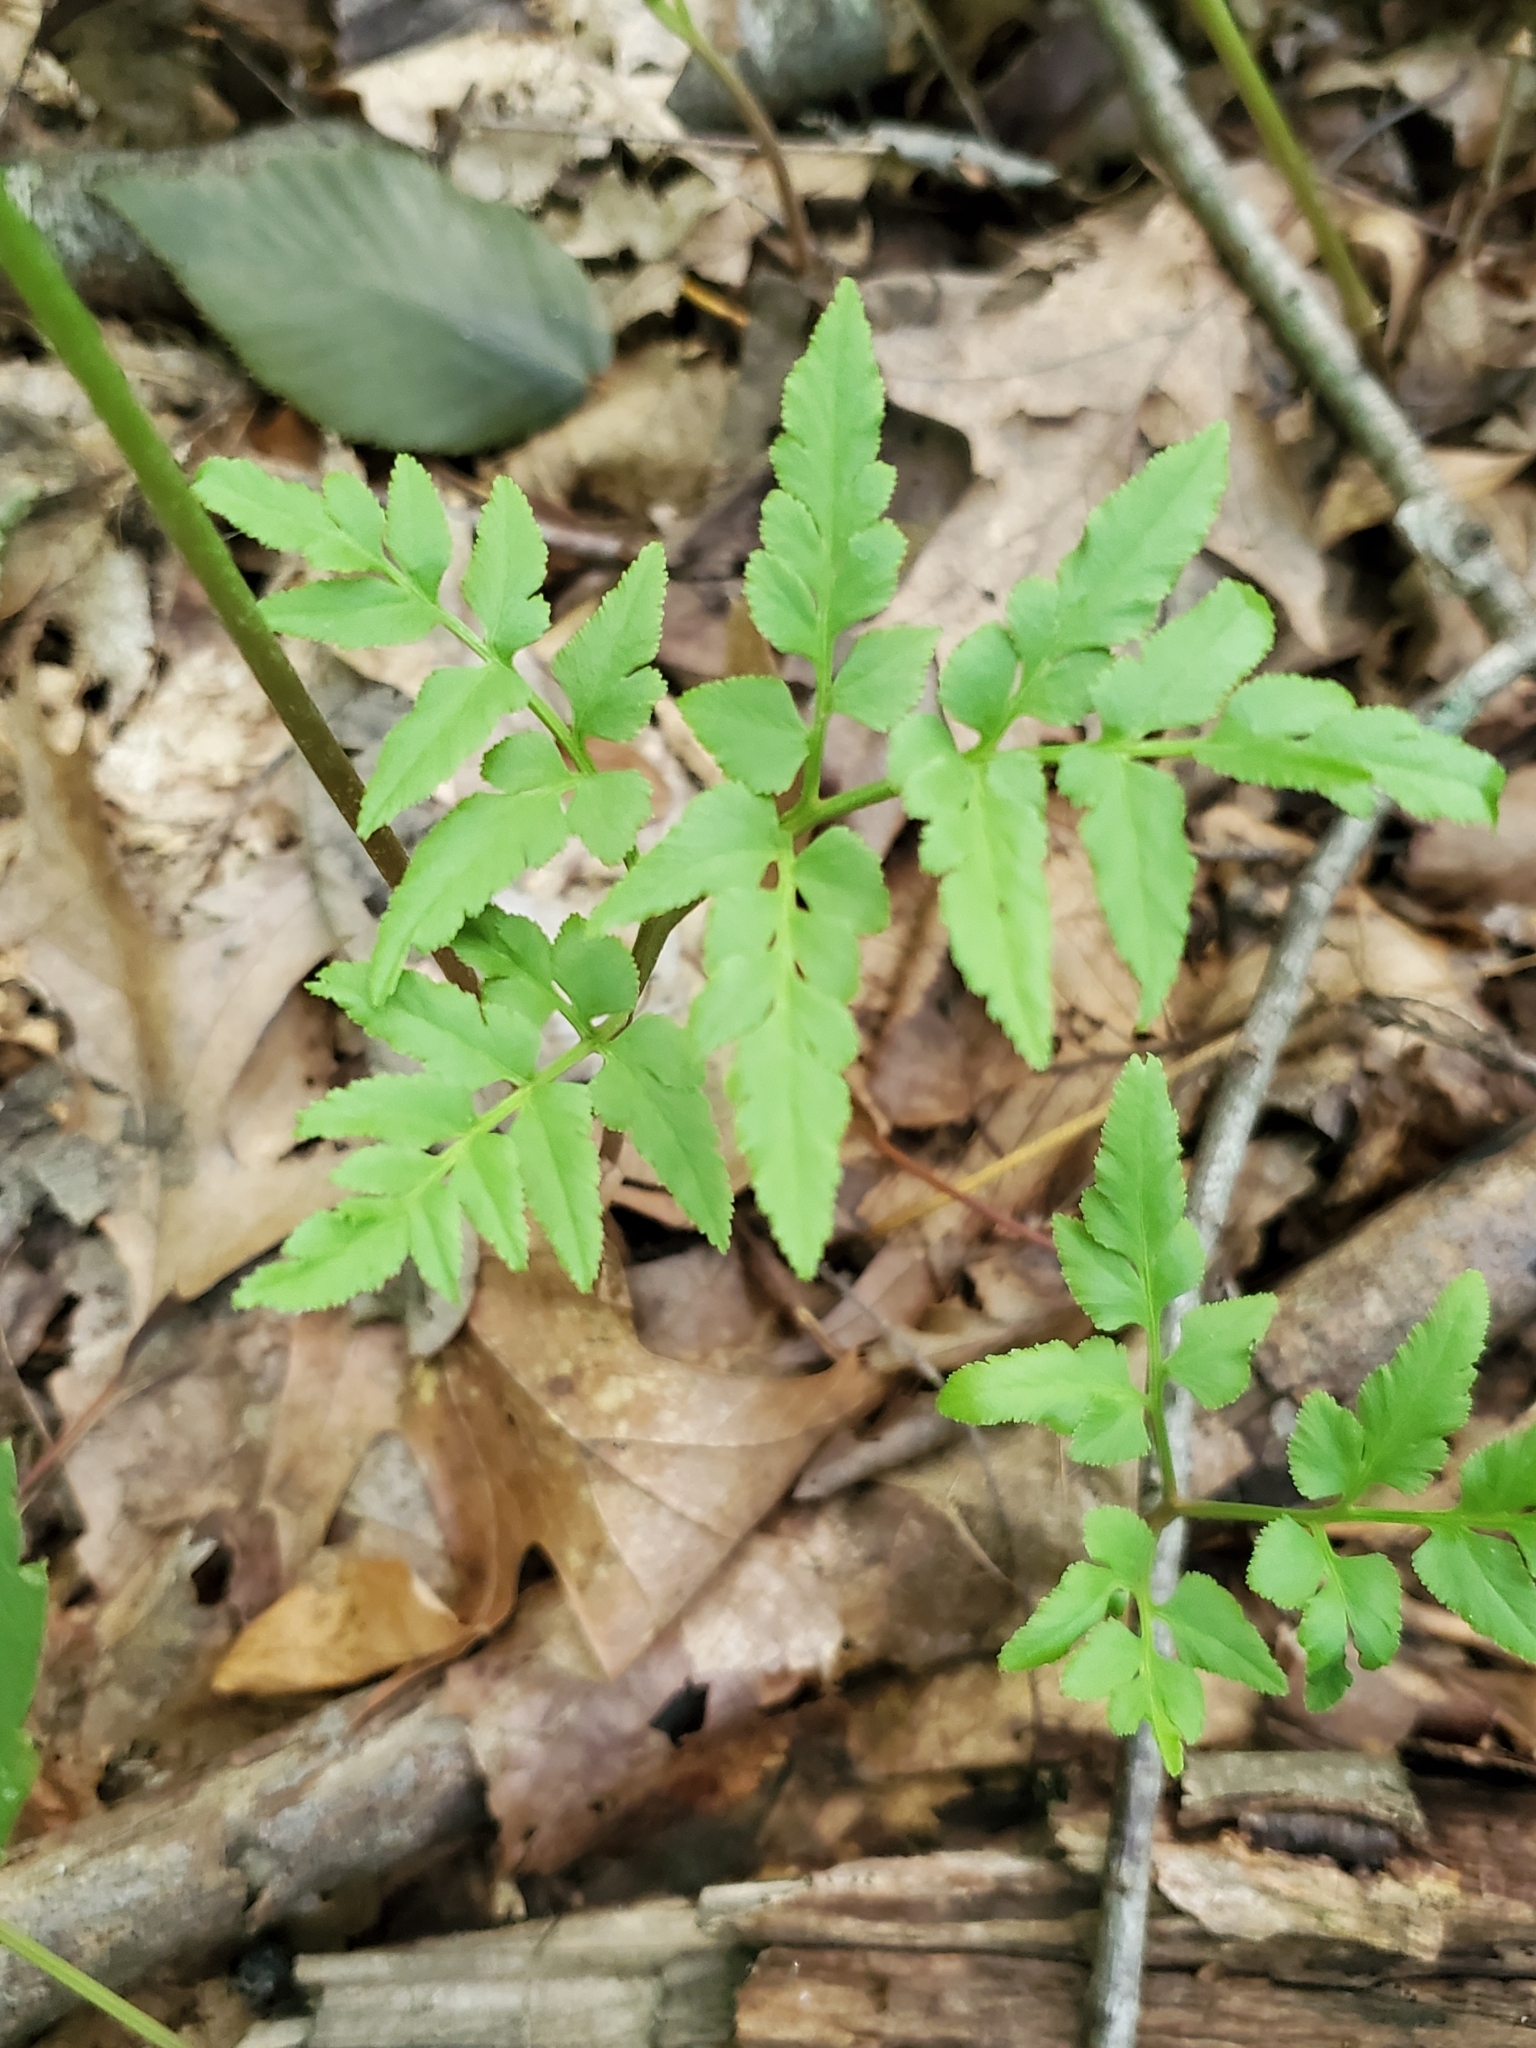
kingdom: Plantae
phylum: Tracheophyta
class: Polypodiopsida
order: Ophioglossales
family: Ophioglossaceae
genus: Sceptridium
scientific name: Sceptridium dissectum
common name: Cut-leaved grapefern
